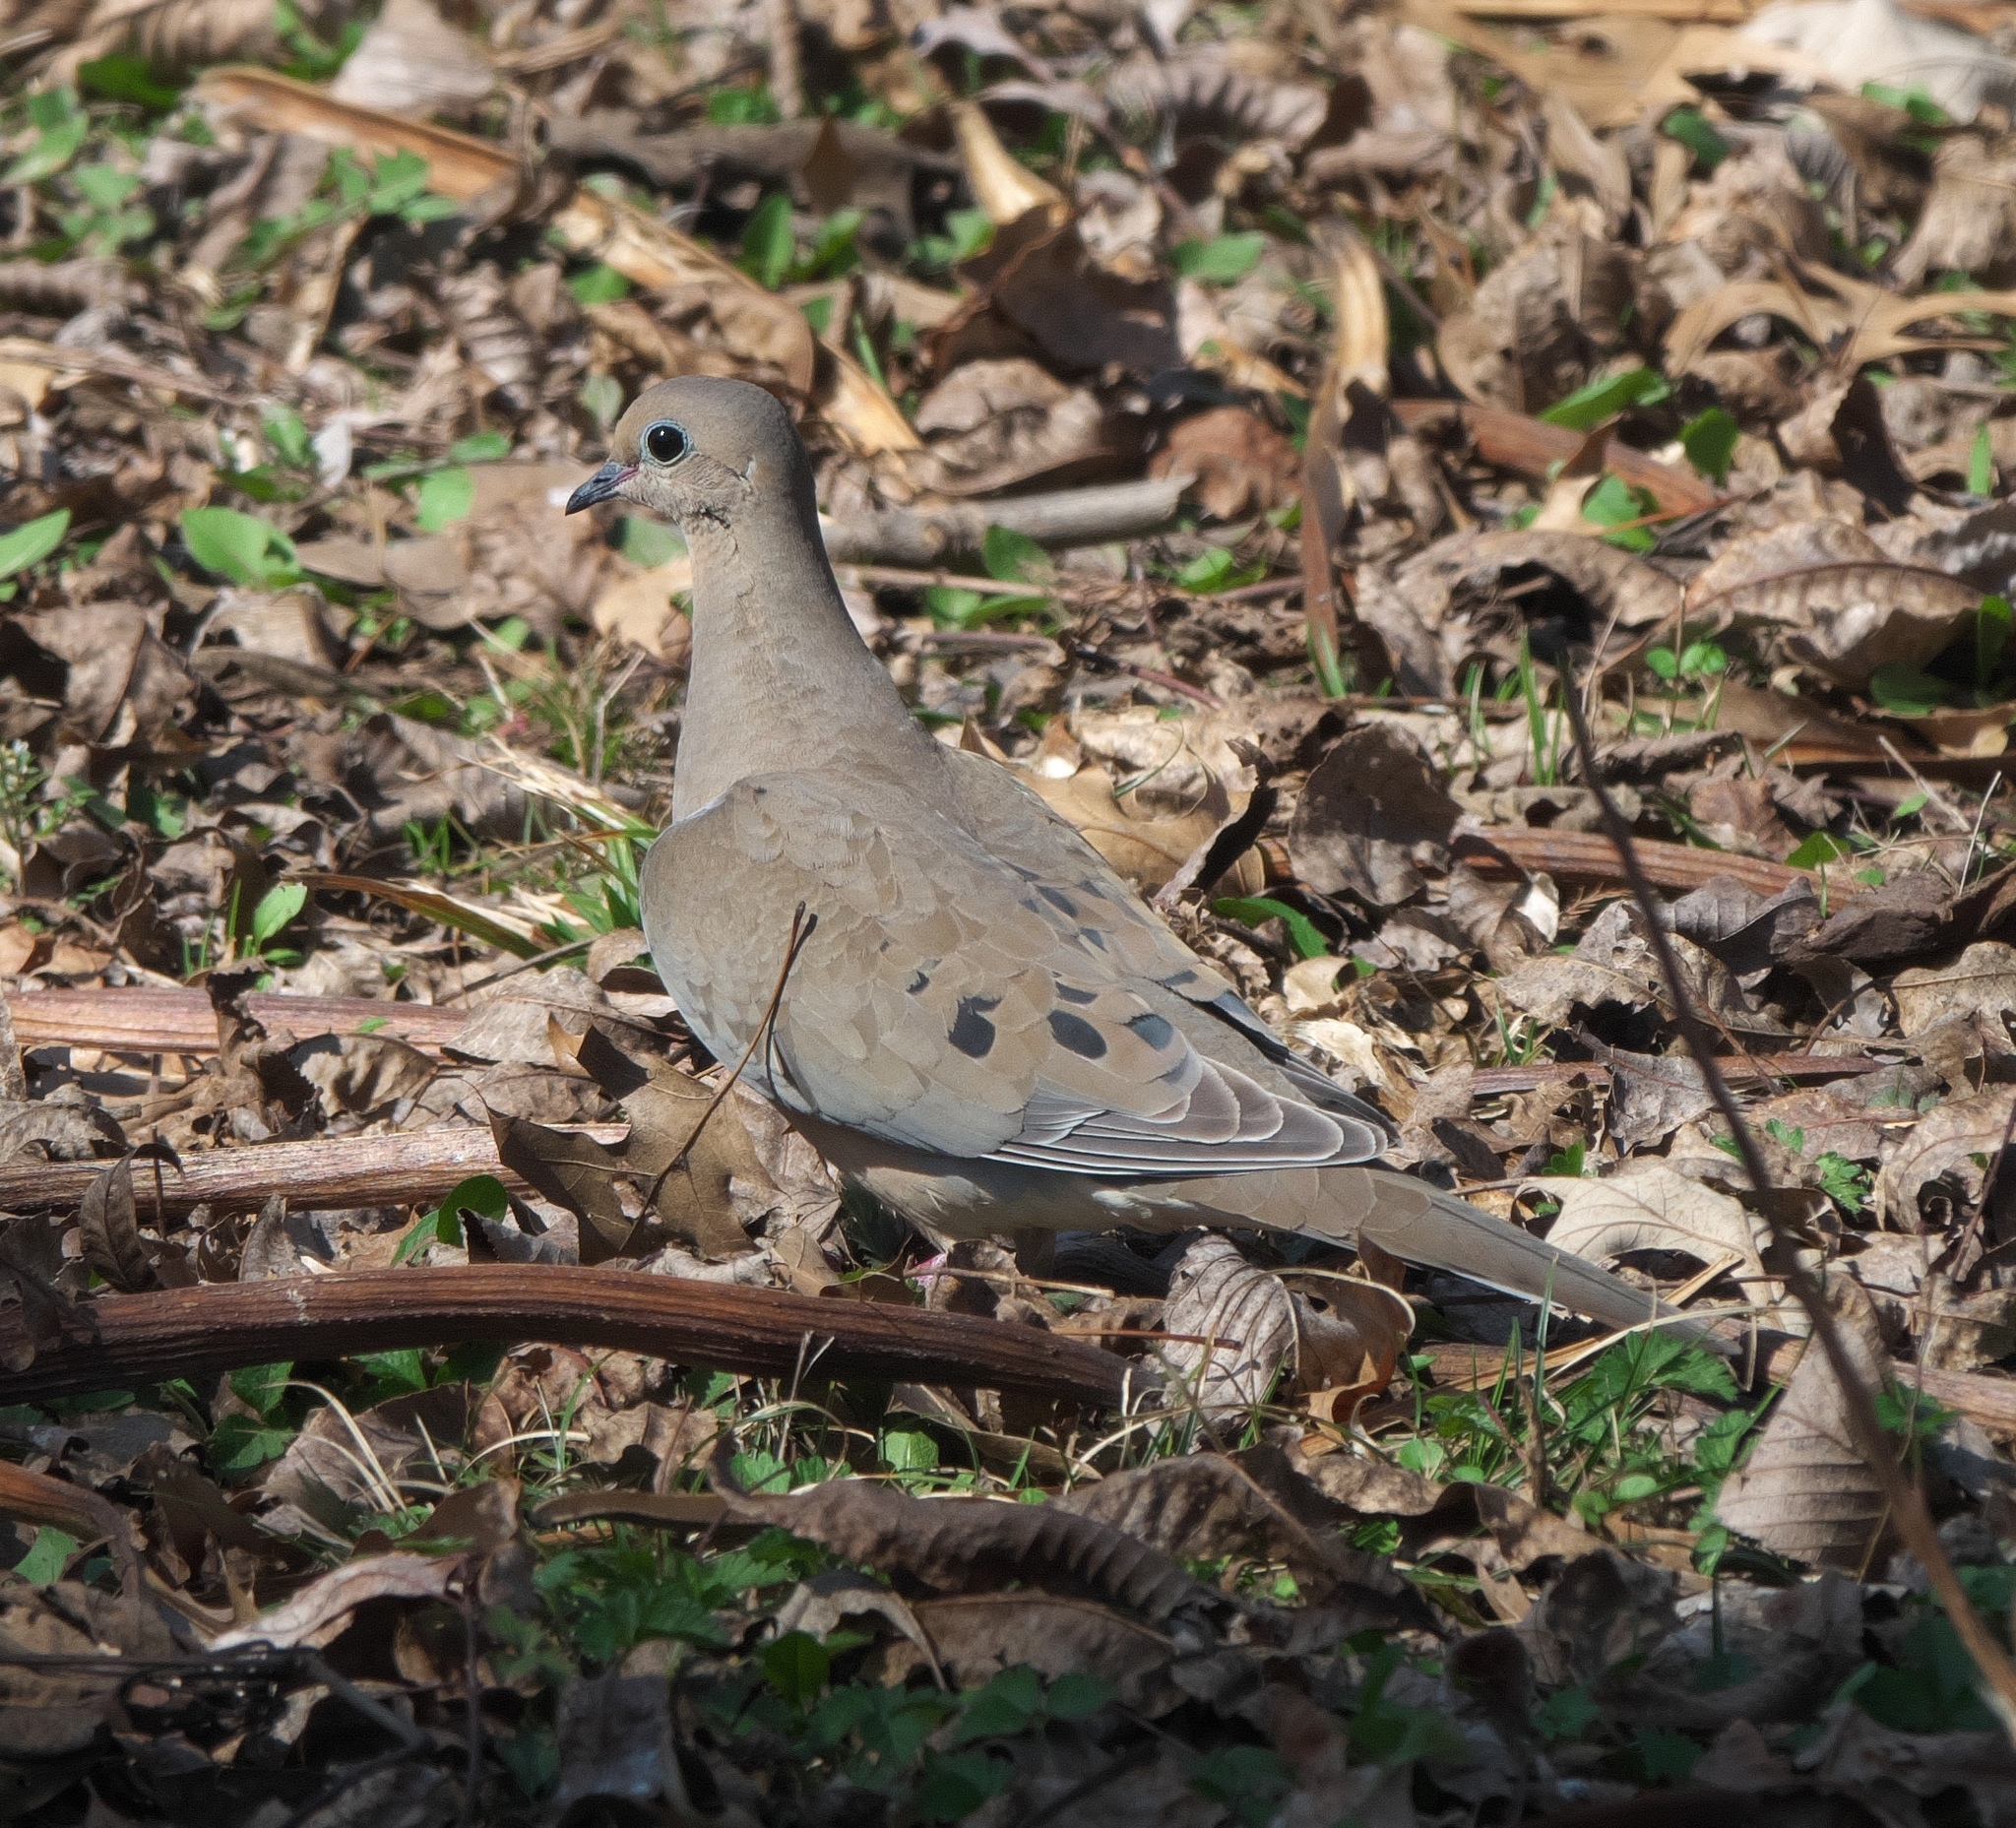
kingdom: Animalia
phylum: Chordata
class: Aves
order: Columbiformes
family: Columbidae
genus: Zenaida
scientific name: Zenaida macroura
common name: Mourning dove
